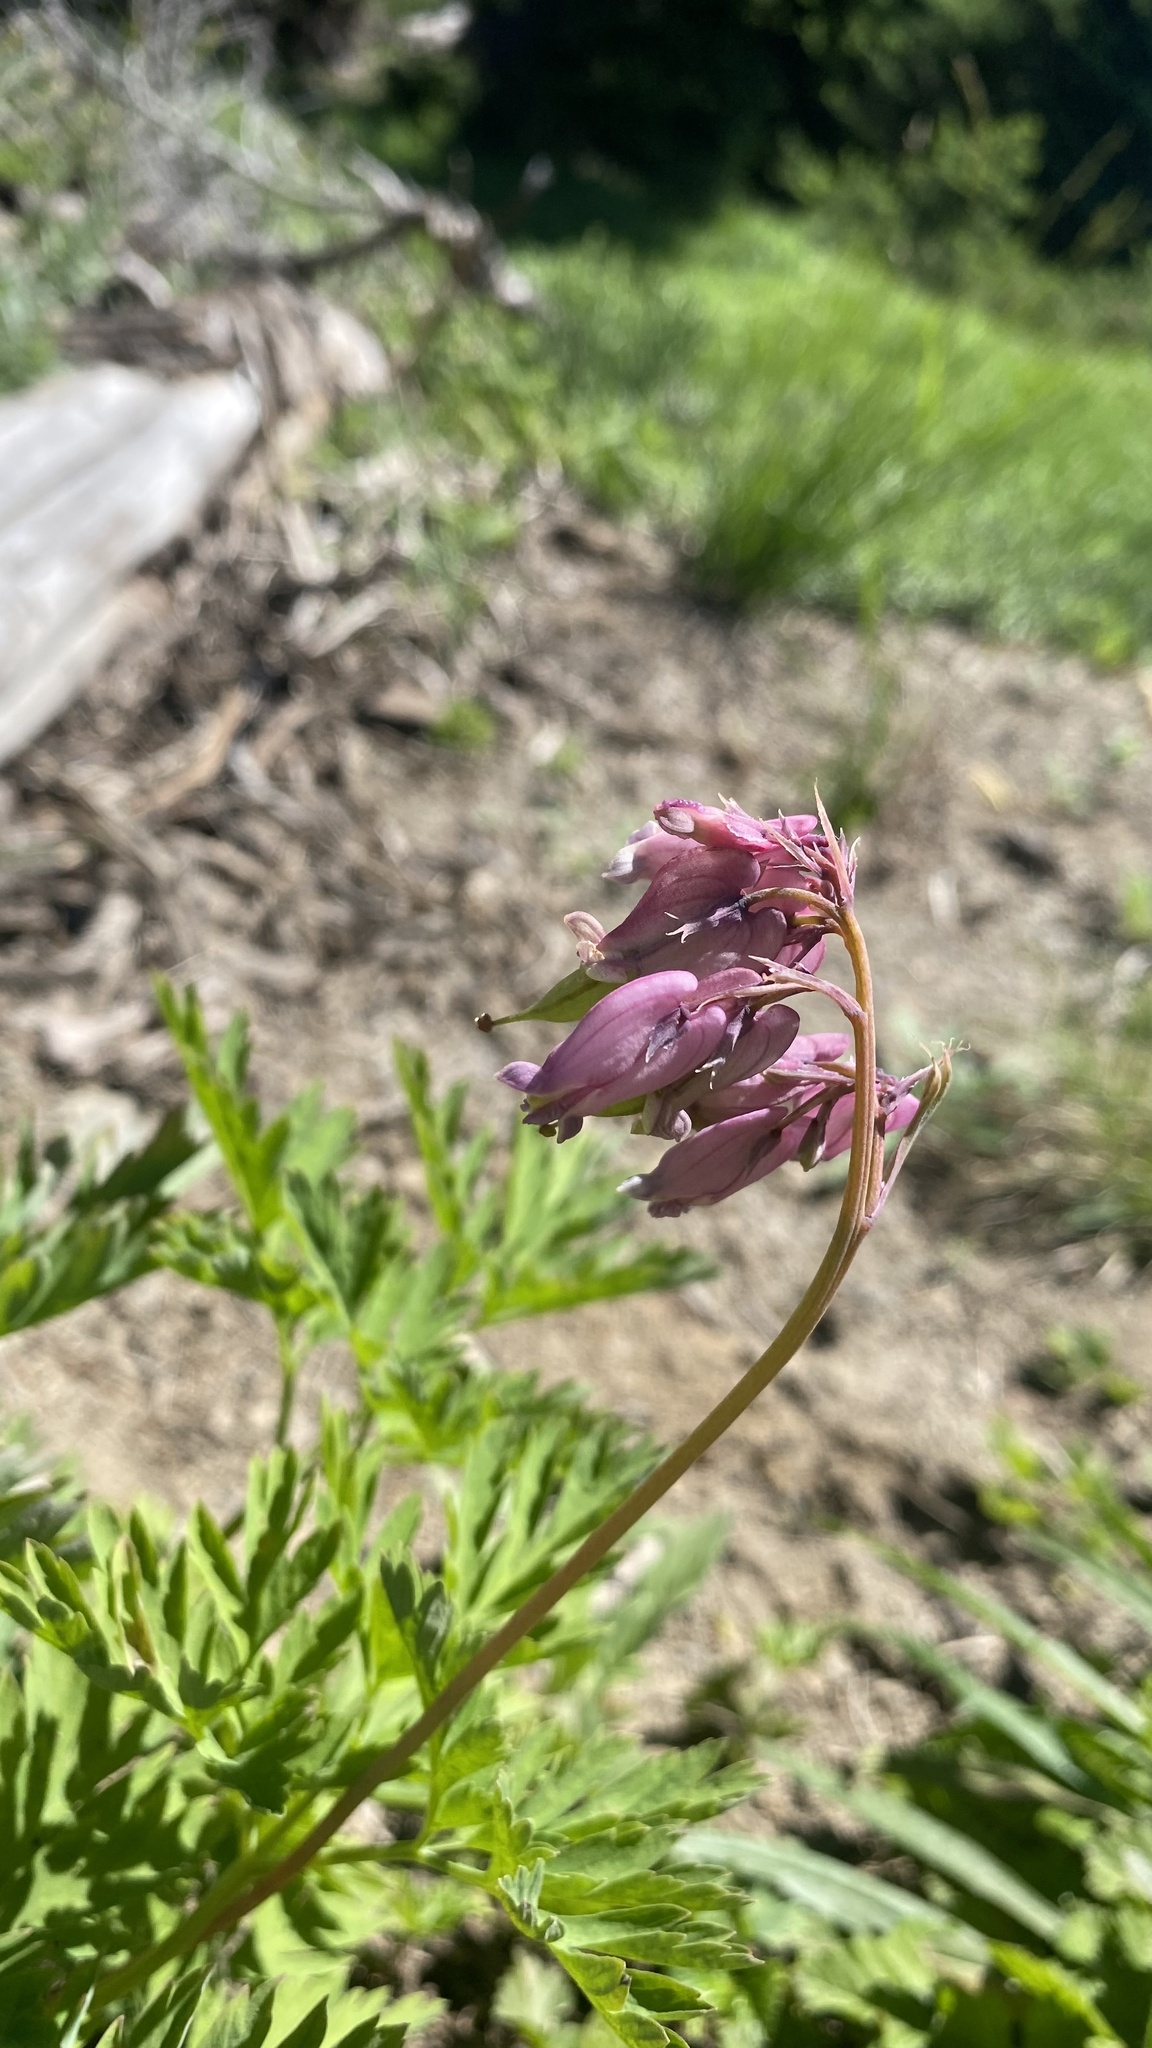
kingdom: Plantae
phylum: Tracheophyta
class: Magnoliopsida
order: Ranunculales
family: Papaveraceae
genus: Dicentra
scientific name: Dicentra formosa
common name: Bleeding-heart
